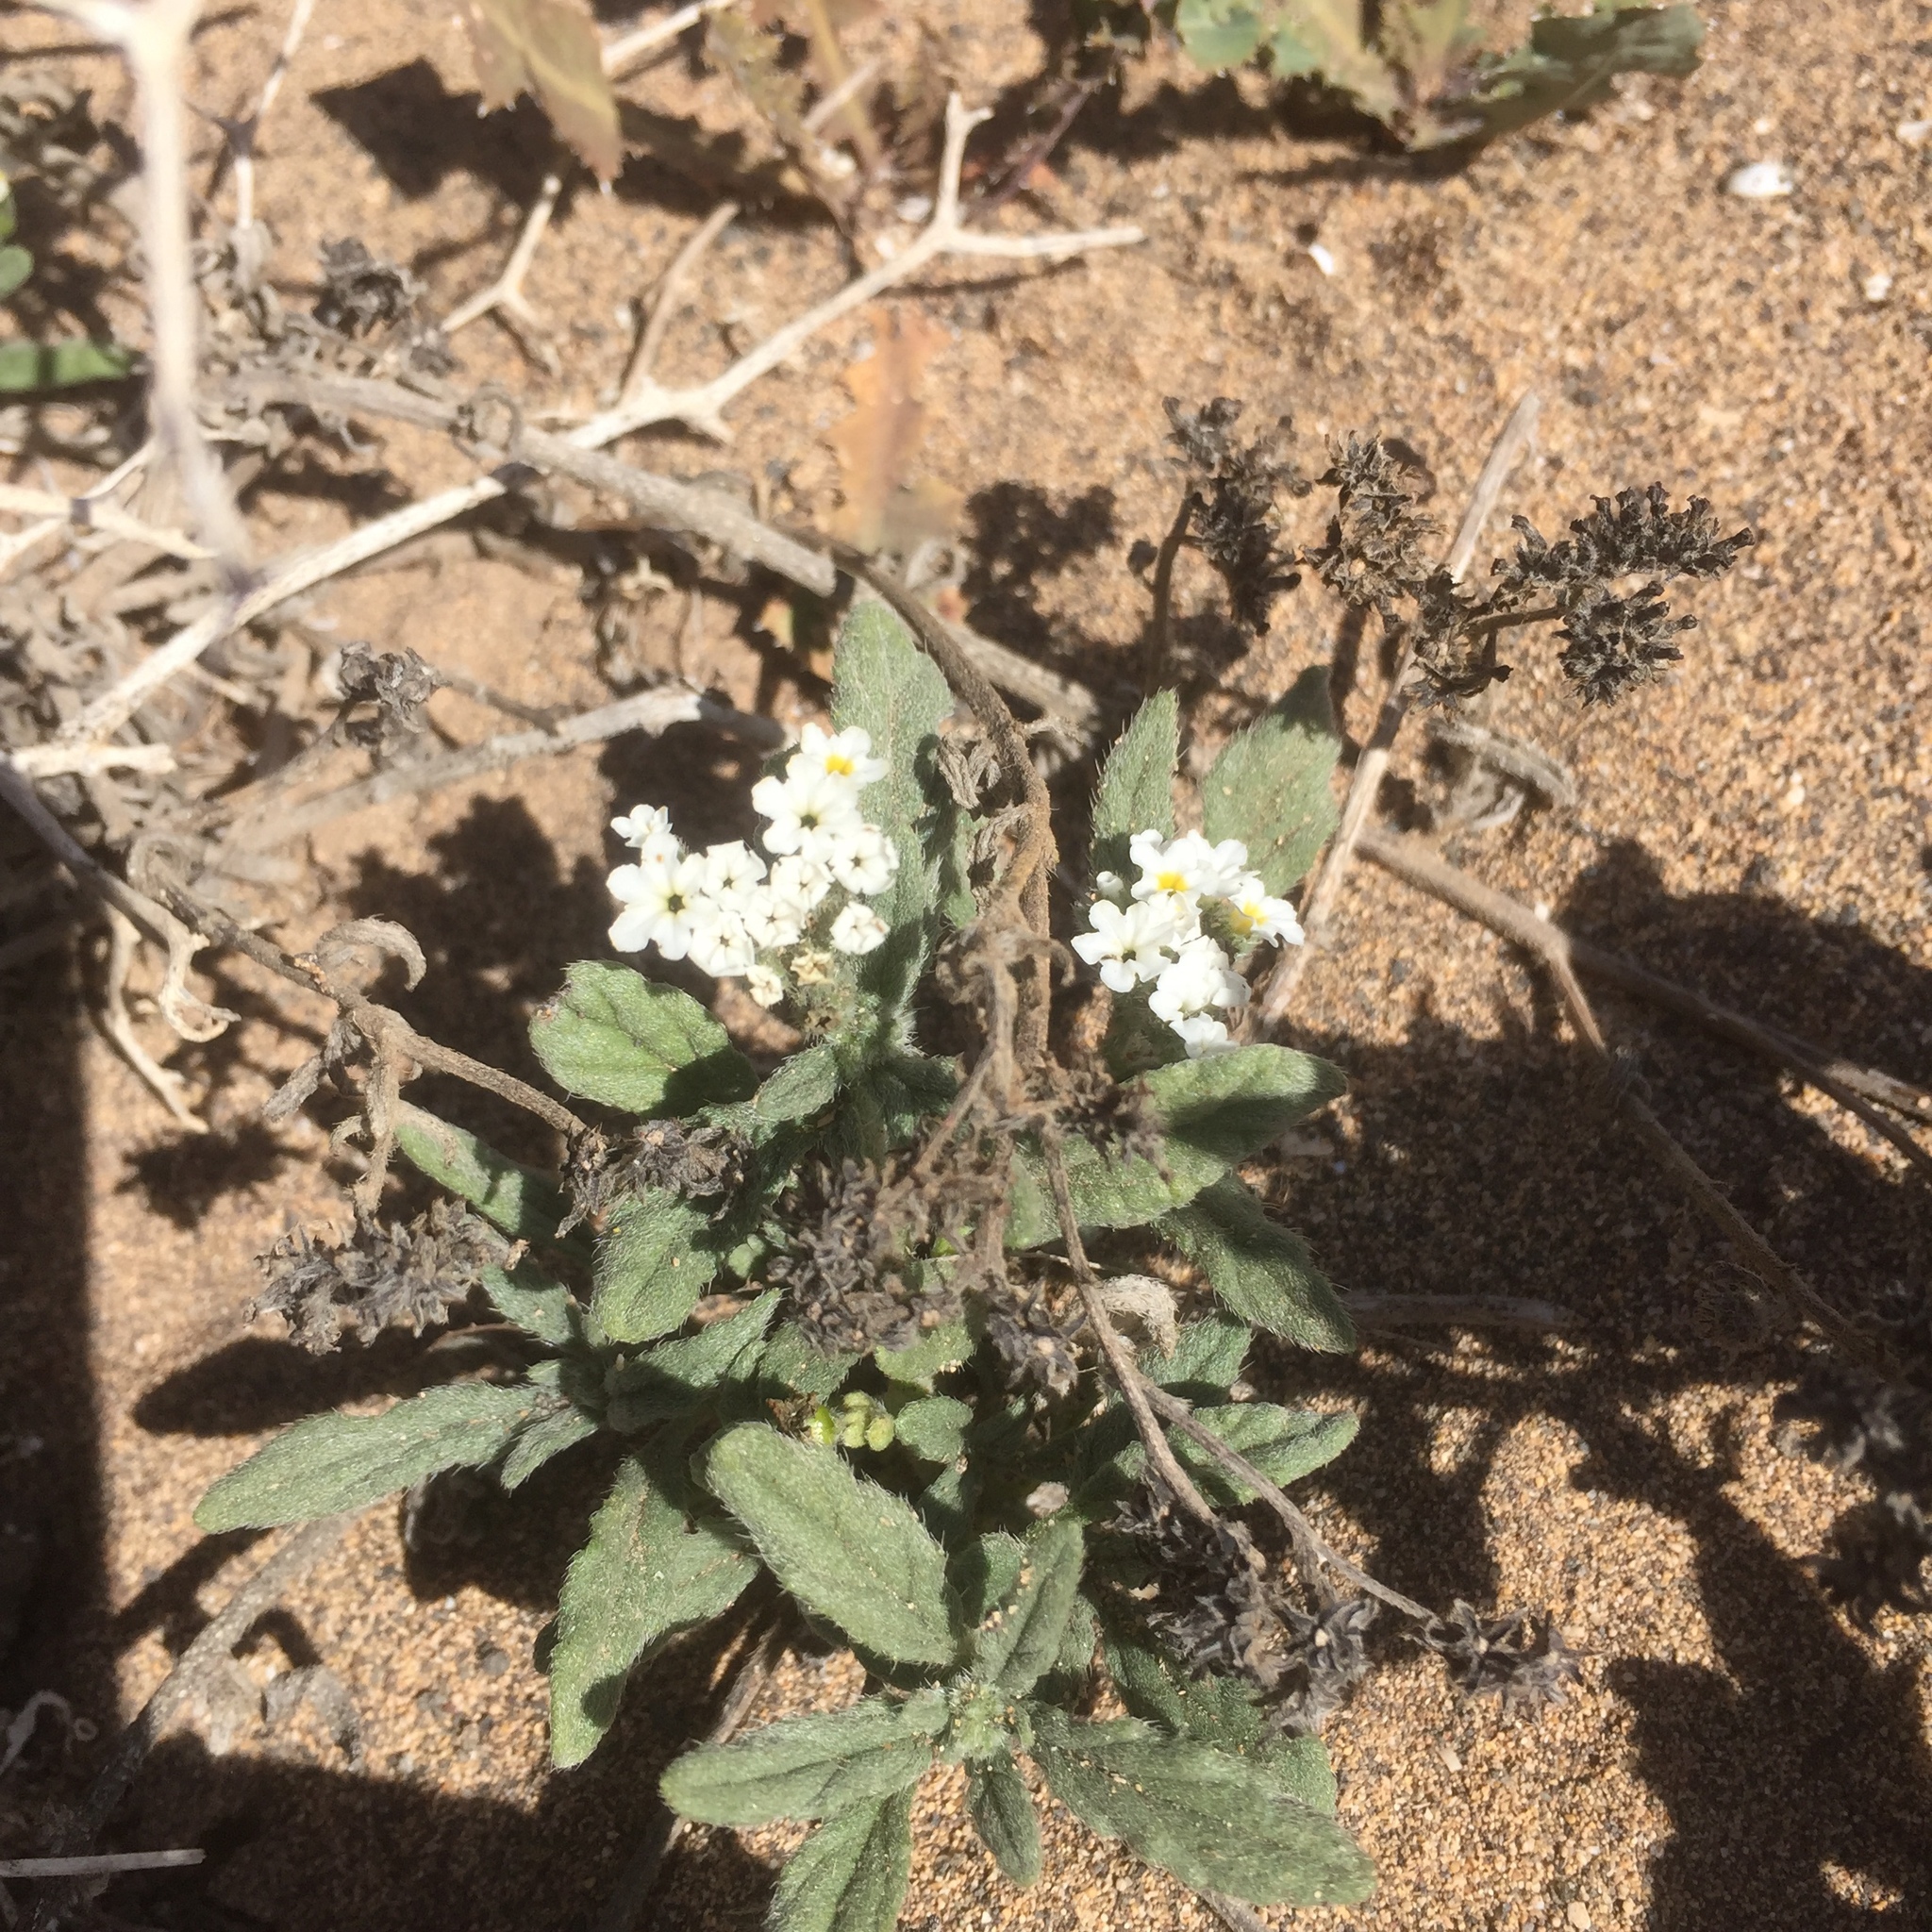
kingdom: Plantae
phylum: Tracheophyta
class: Magnoliopsida
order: Boraginales
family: Heliotropiaceae
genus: Heliotropium
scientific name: Heliotropium ramosissimum
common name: Wavy heliotrope
